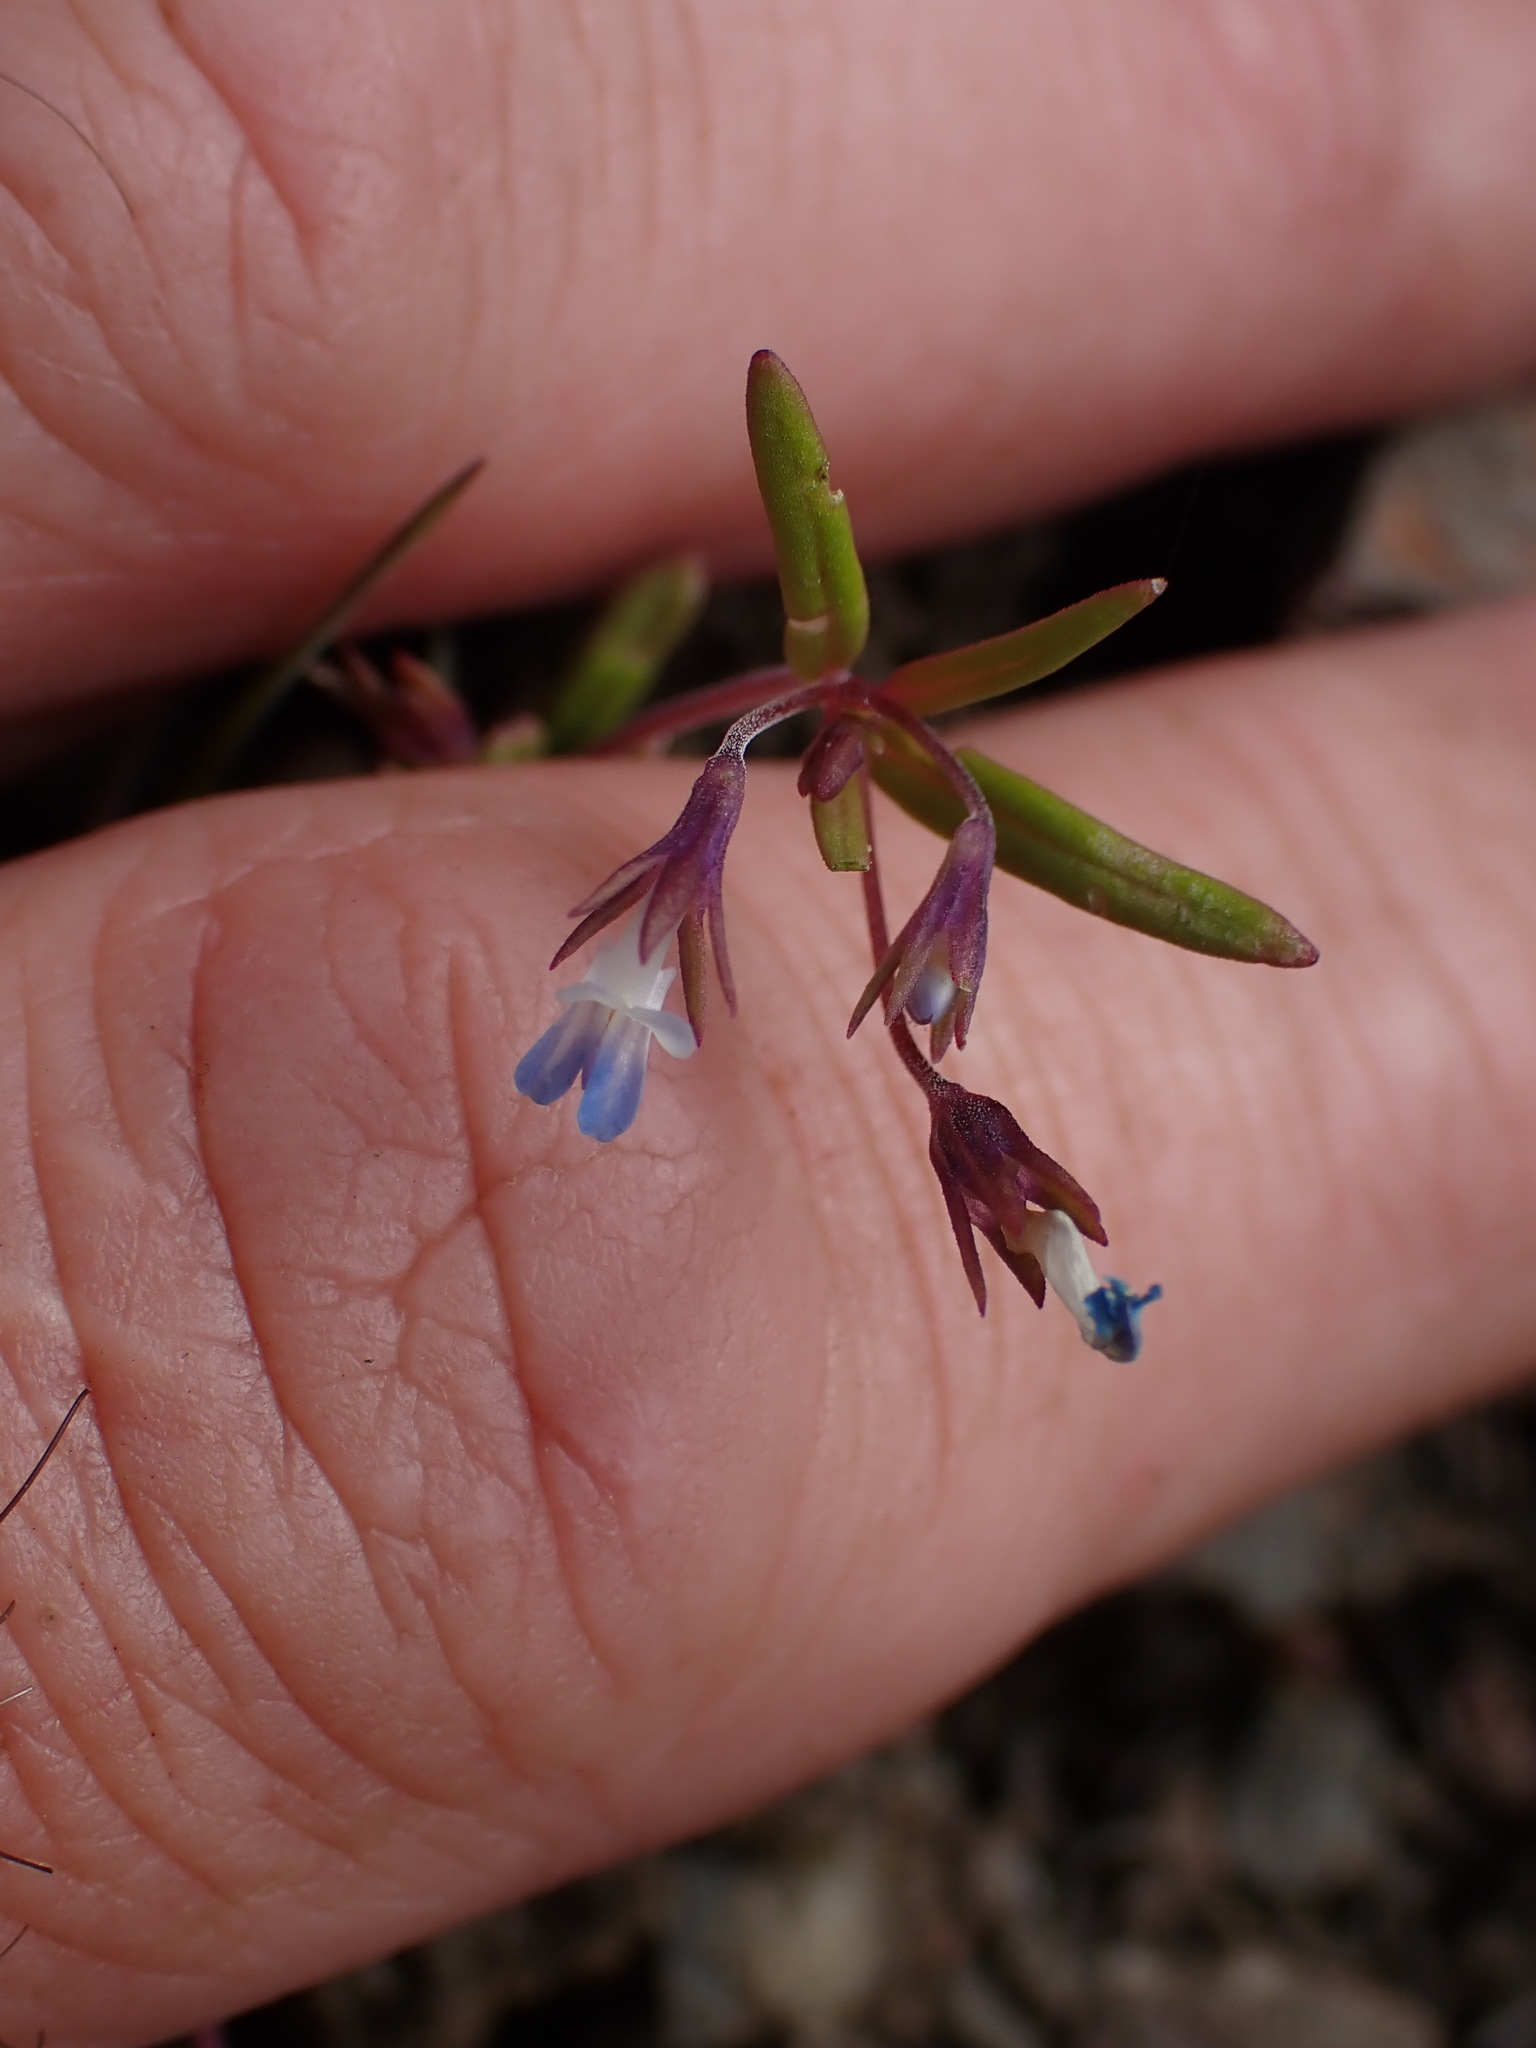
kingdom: Plantae
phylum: Tracheophyta
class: Magnoliopsida
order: Lamiales
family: Plantaginaceae
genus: Collinsia
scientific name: Collinsia parviflora
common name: Blue-lips
